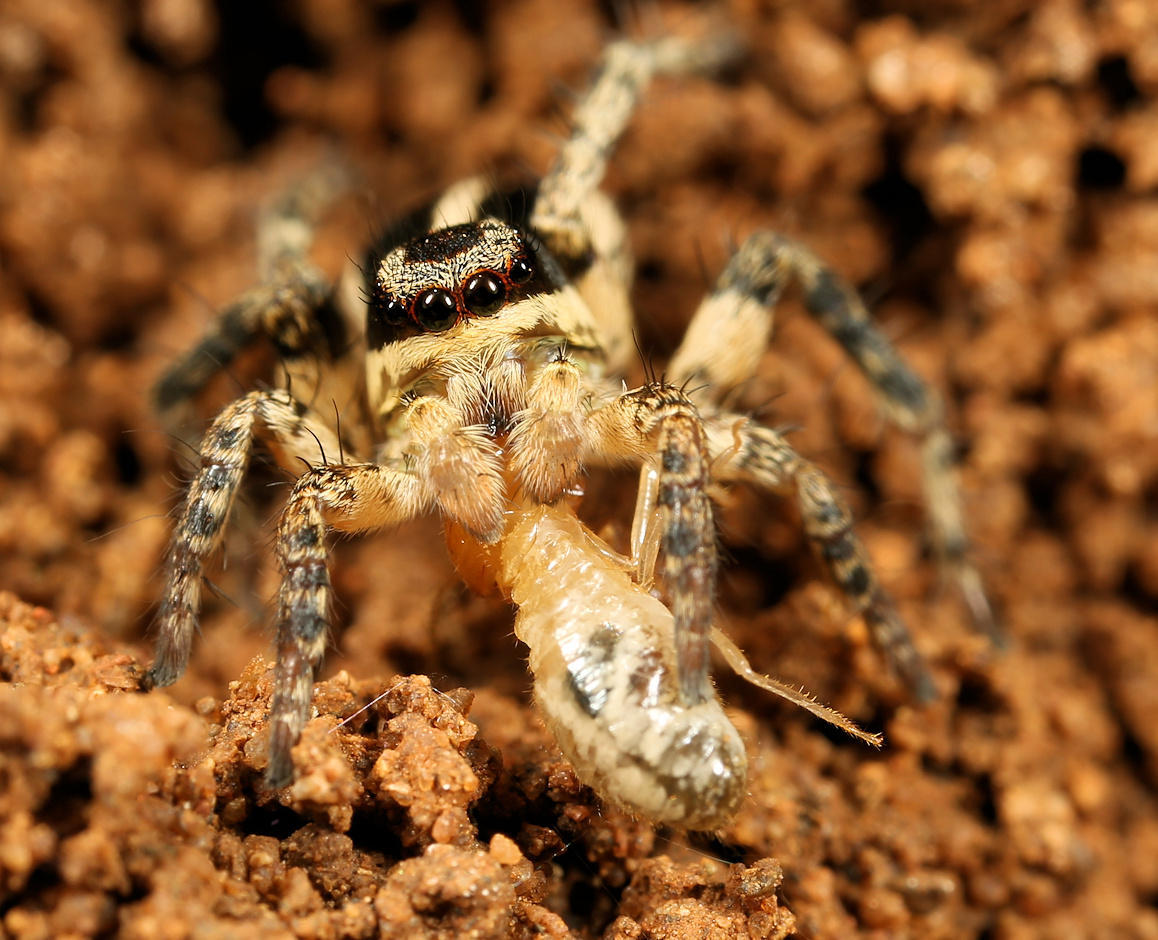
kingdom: Animalia
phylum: Arthropoda
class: Arachnida
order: Araneae
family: Salticidae
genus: Stenaelurillus
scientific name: Stenaelurillus termitophagus
